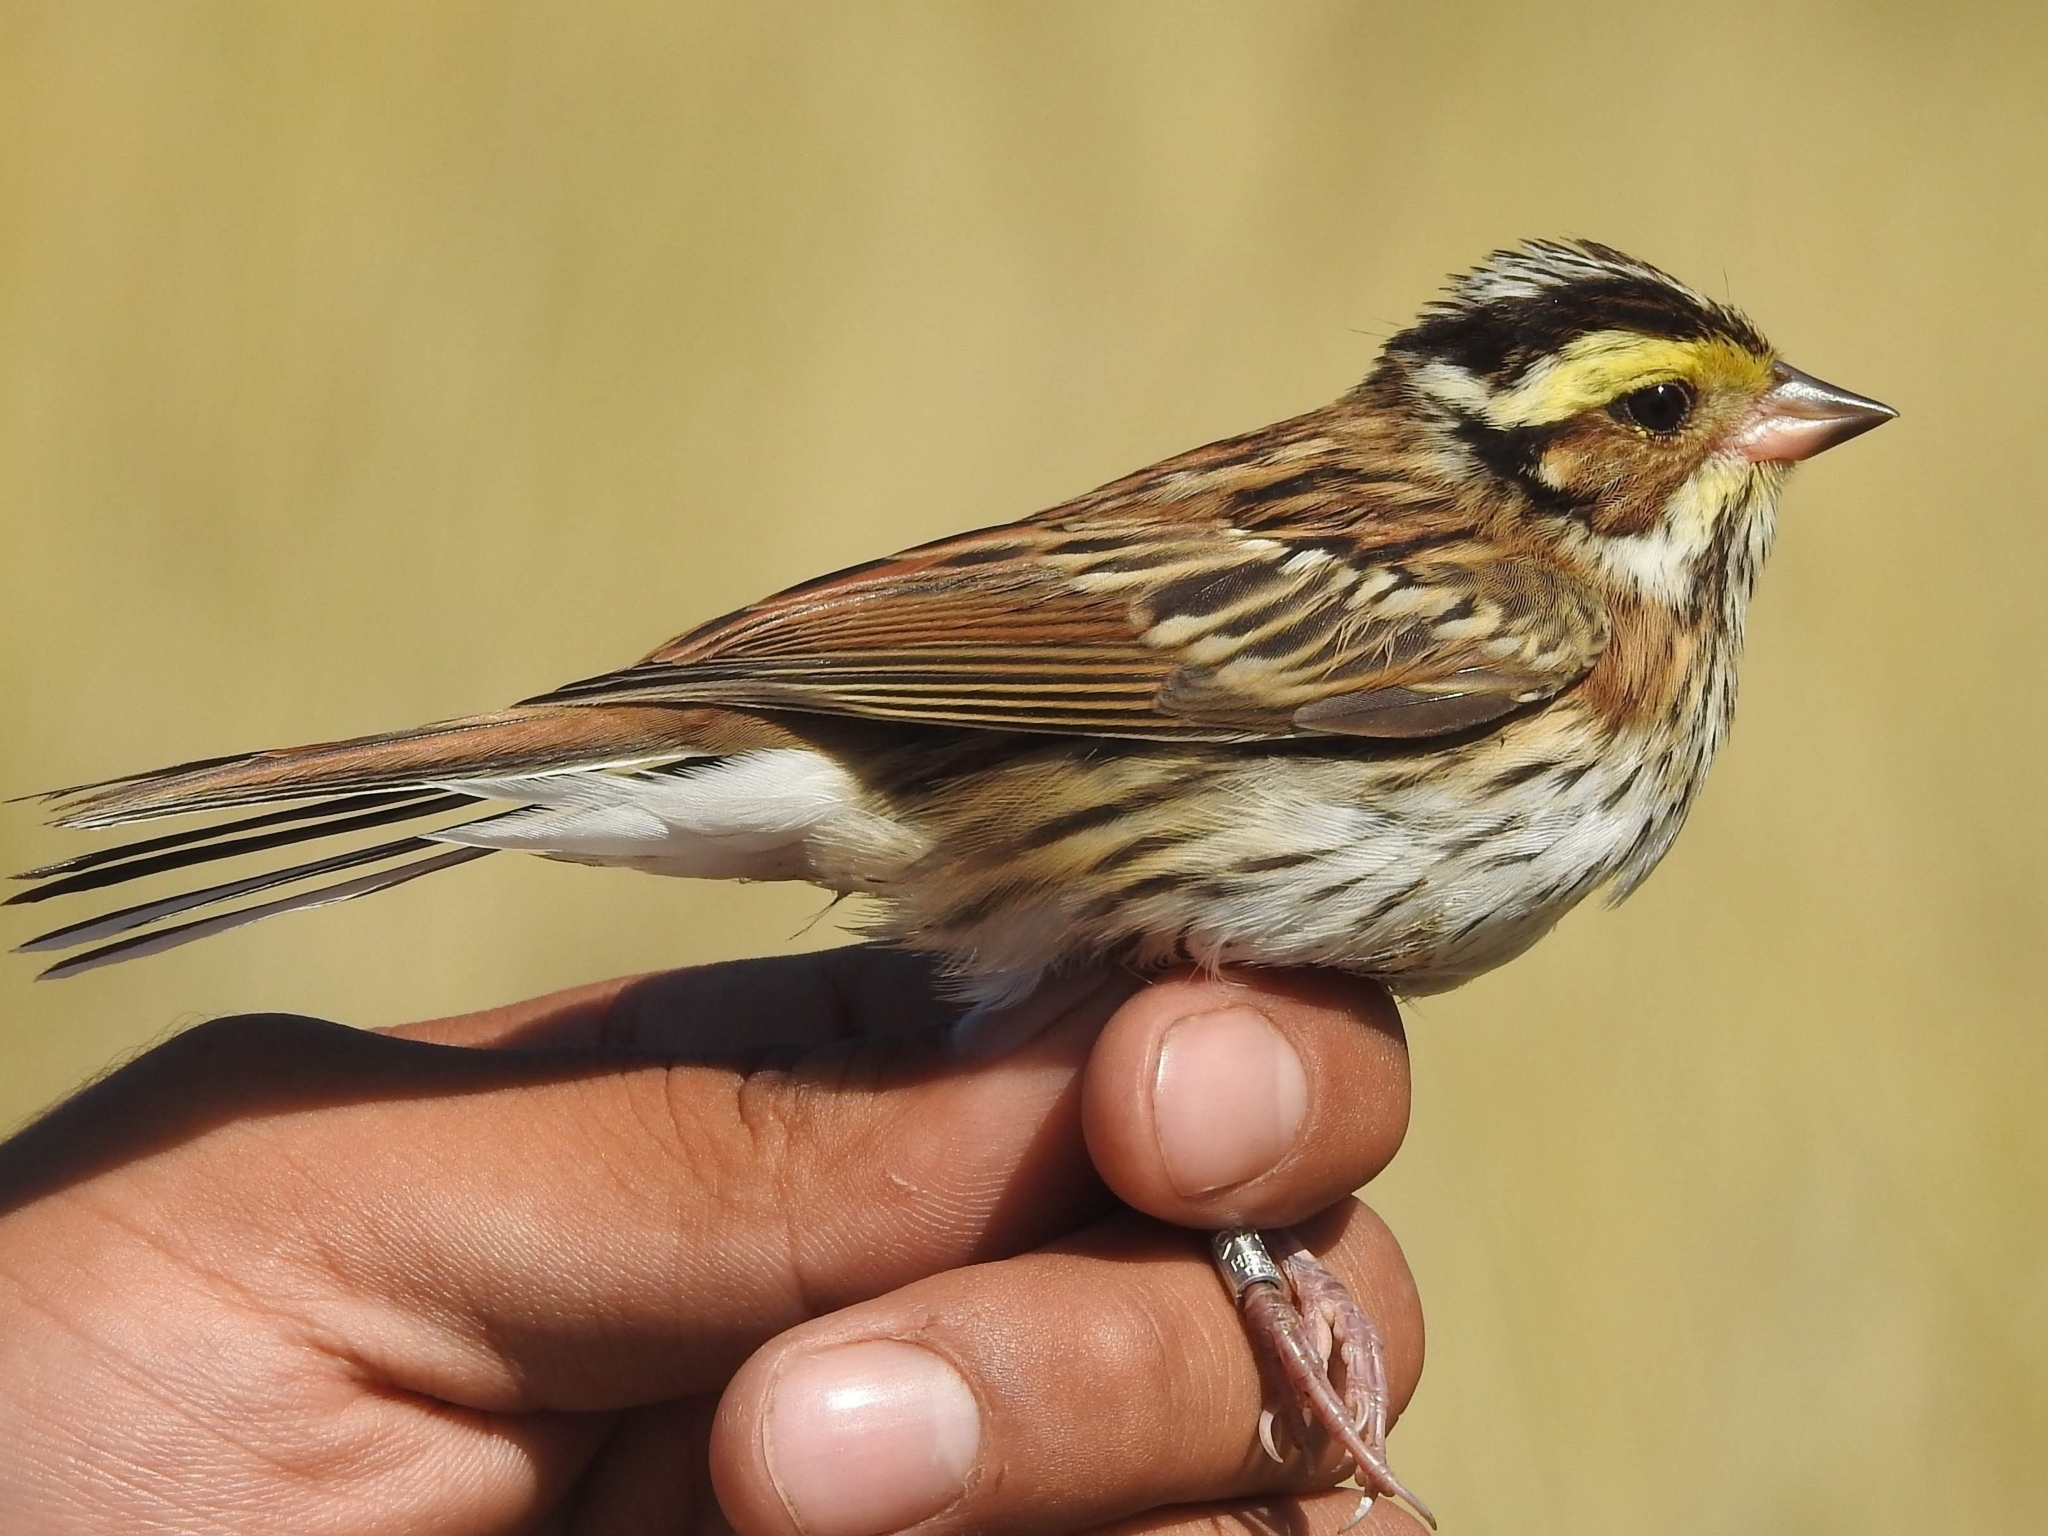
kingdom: Animalia
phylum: Chordata
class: Aves
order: Passeriformes
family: Emberizidae
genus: Emberiza
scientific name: Emberiza chrysophrys
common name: Yellow-browed bunting
